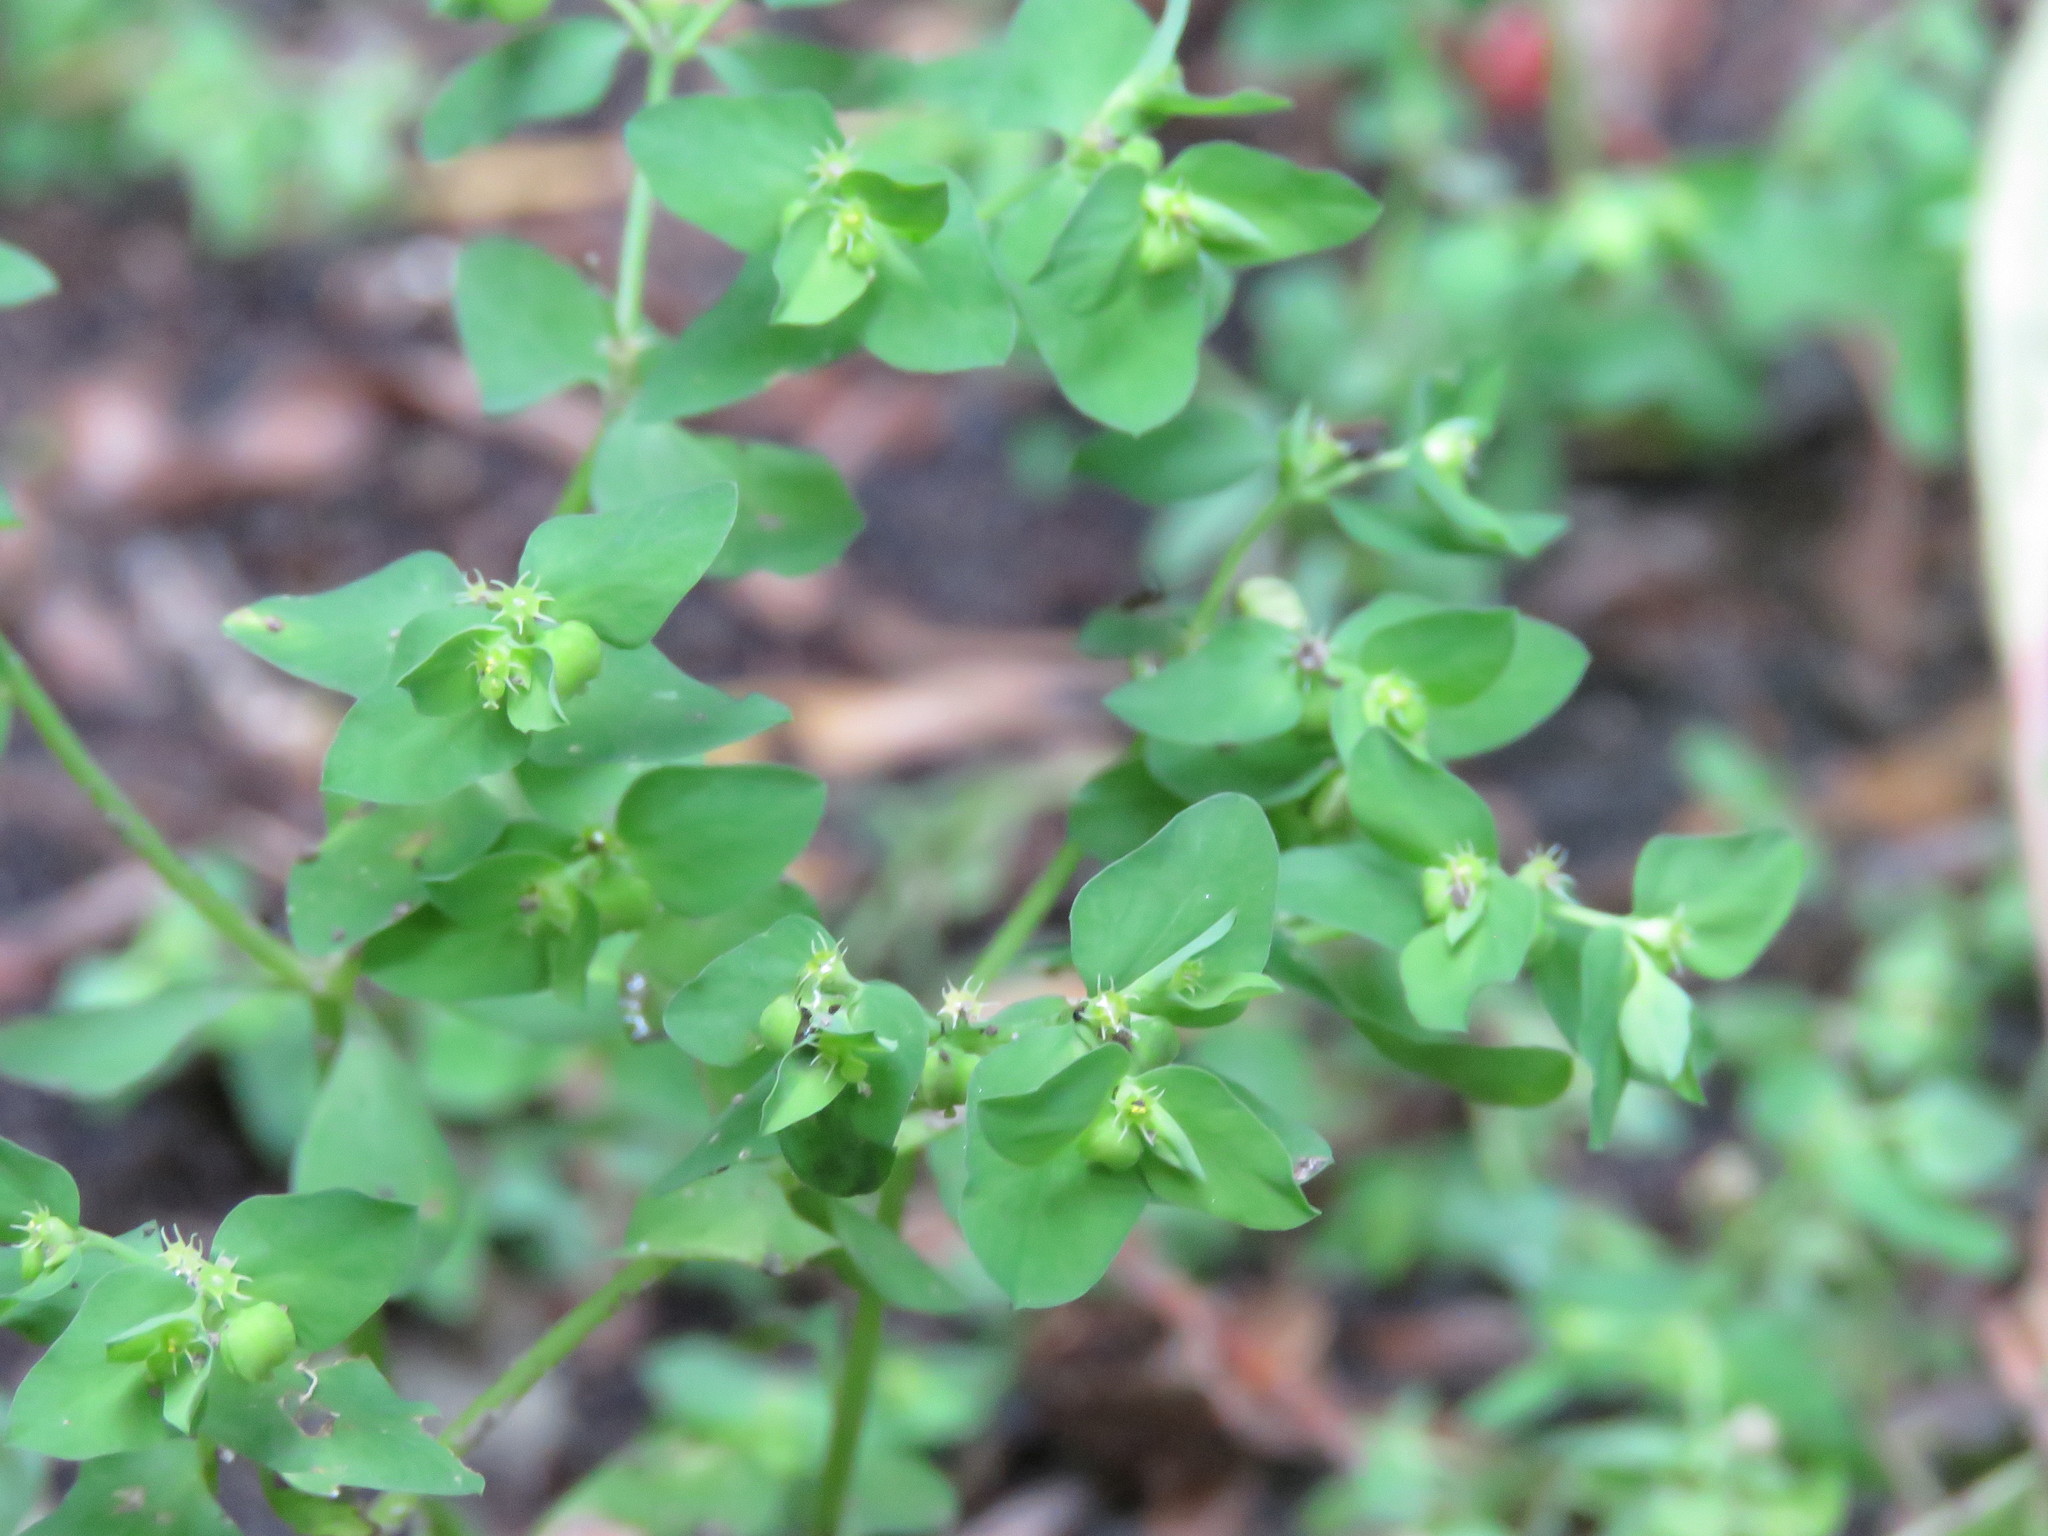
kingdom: Plantae
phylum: Tracheophyta
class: Magnoliopsida
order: Malpighiales
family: Euphorbiaceae
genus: Euphorbia
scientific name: Euphorbia peplus
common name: Petty spurge
